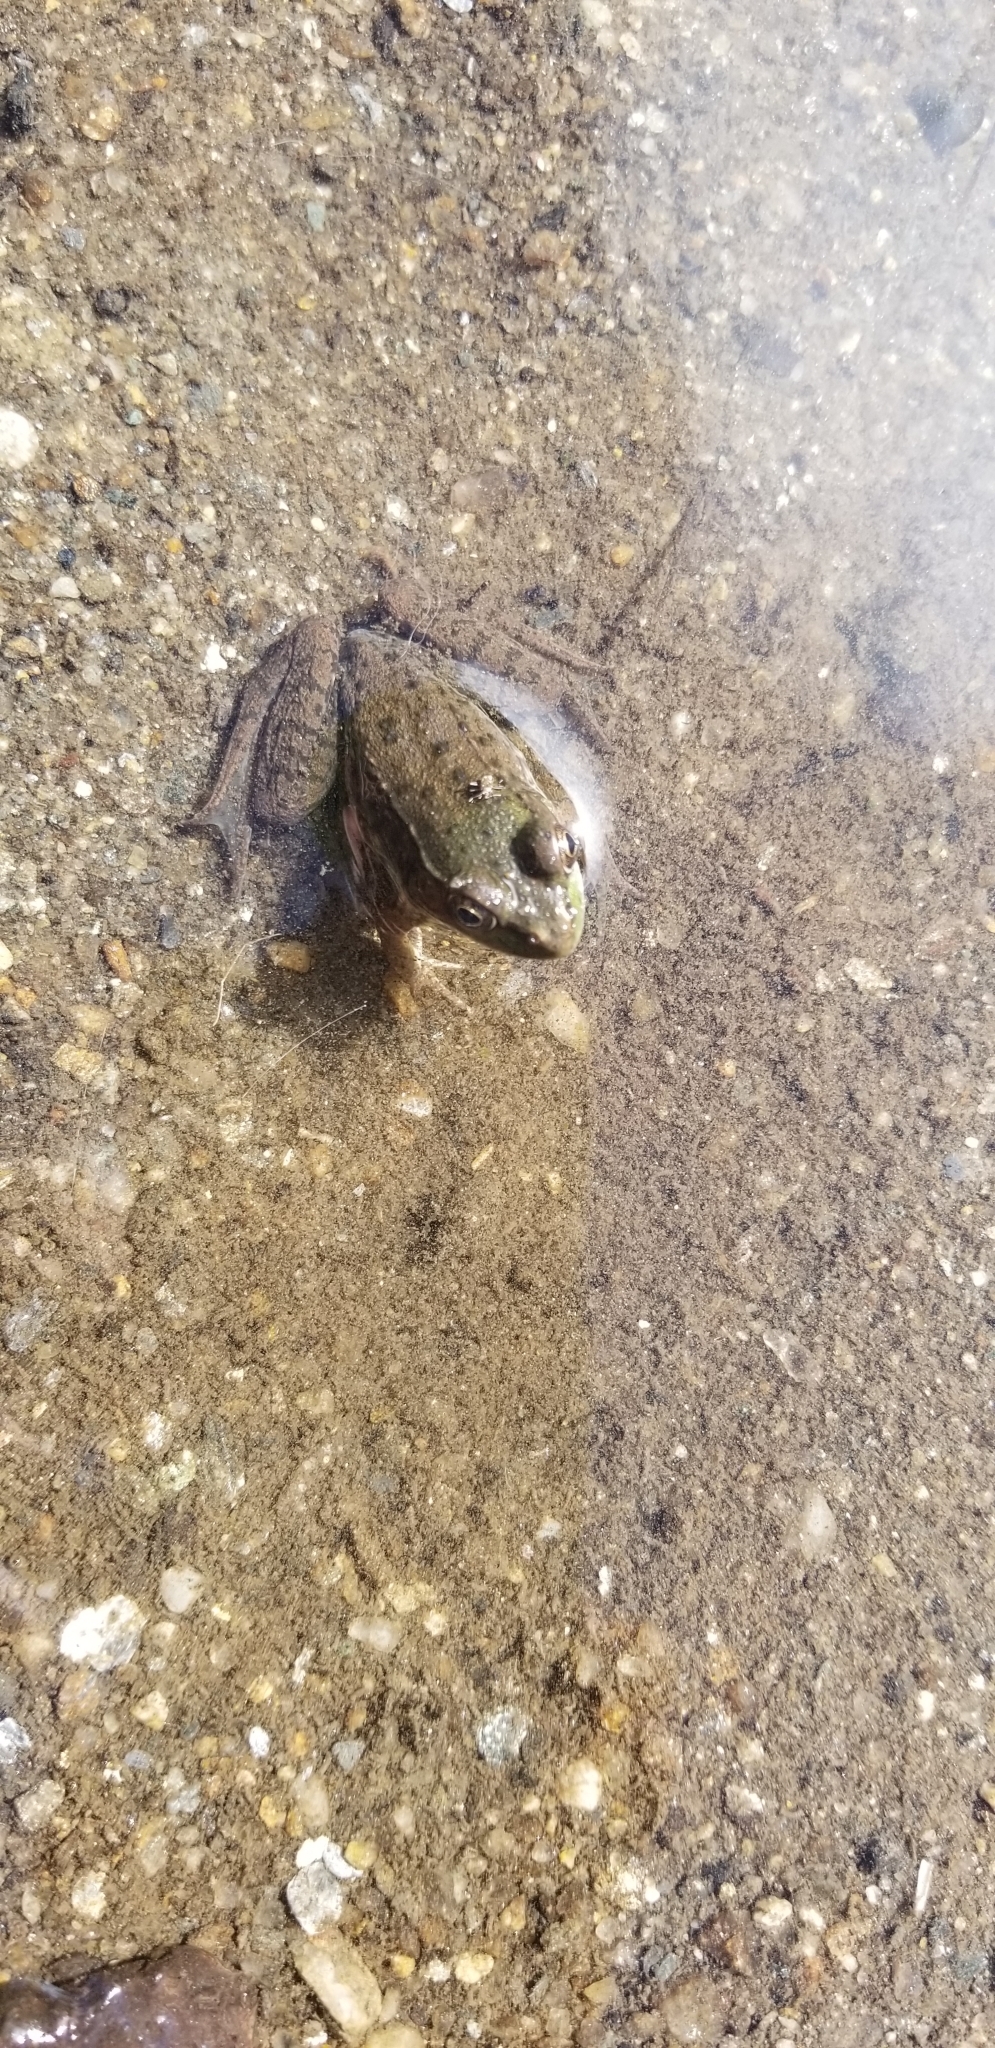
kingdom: Animalia
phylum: Chordata
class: Amphibia
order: Anura
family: Ranidae
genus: Lithobates
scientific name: Lithobates clamitans
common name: Green frog
